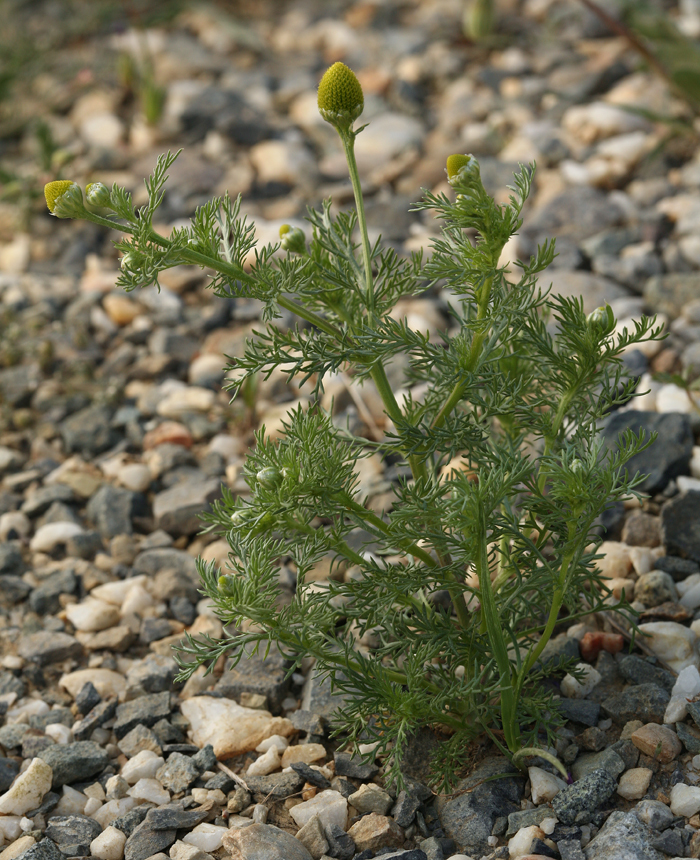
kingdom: Plantae
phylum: Tracheophyta
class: Magnoliopsida
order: Asterales
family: Asteraceae
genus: Matricaria
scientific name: Matricaria discoidea
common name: Disc mayweed
